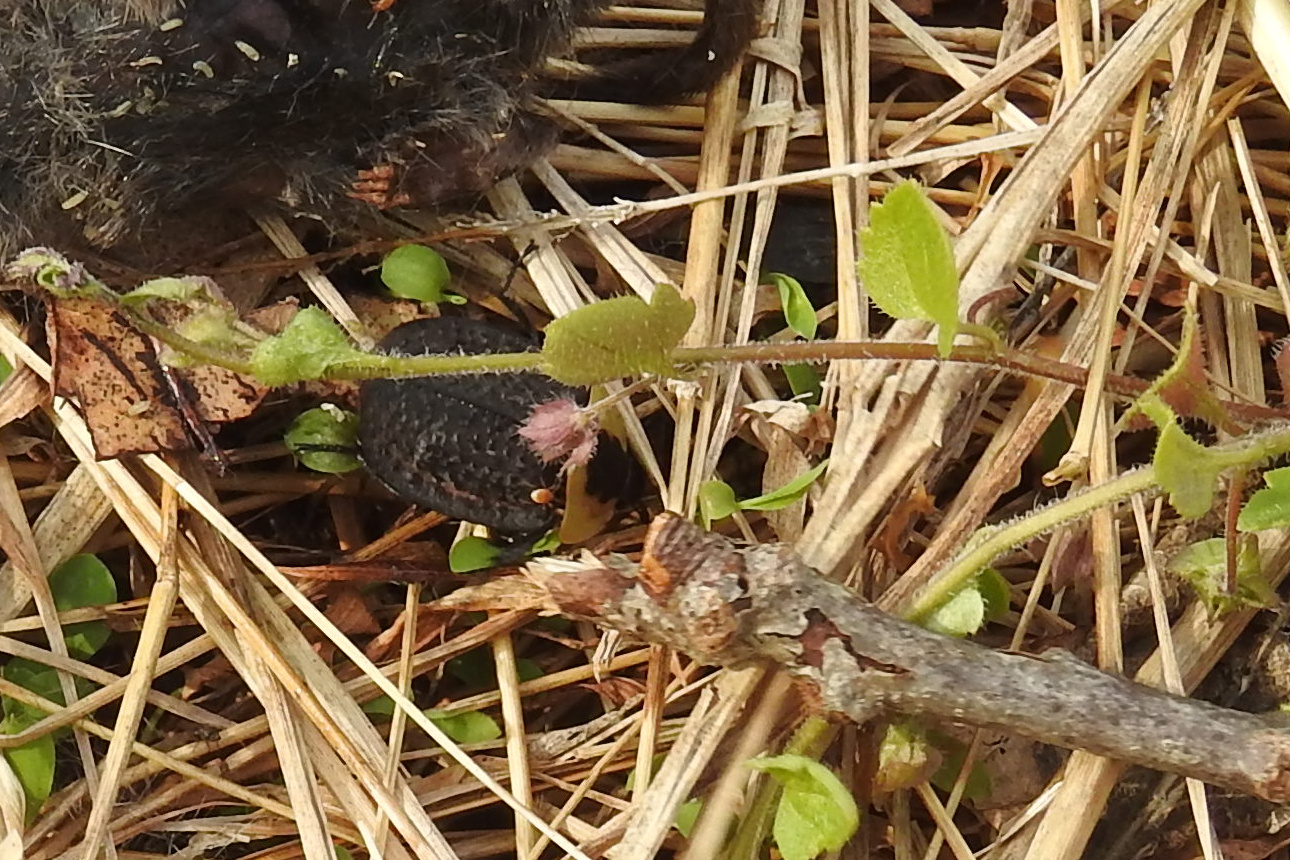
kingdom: Animalia
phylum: Arthropoda
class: Insecta
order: Coleoptera
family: Staphylinidae
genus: Necrophila
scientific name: Necrophila americana
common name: American carrion beetle
